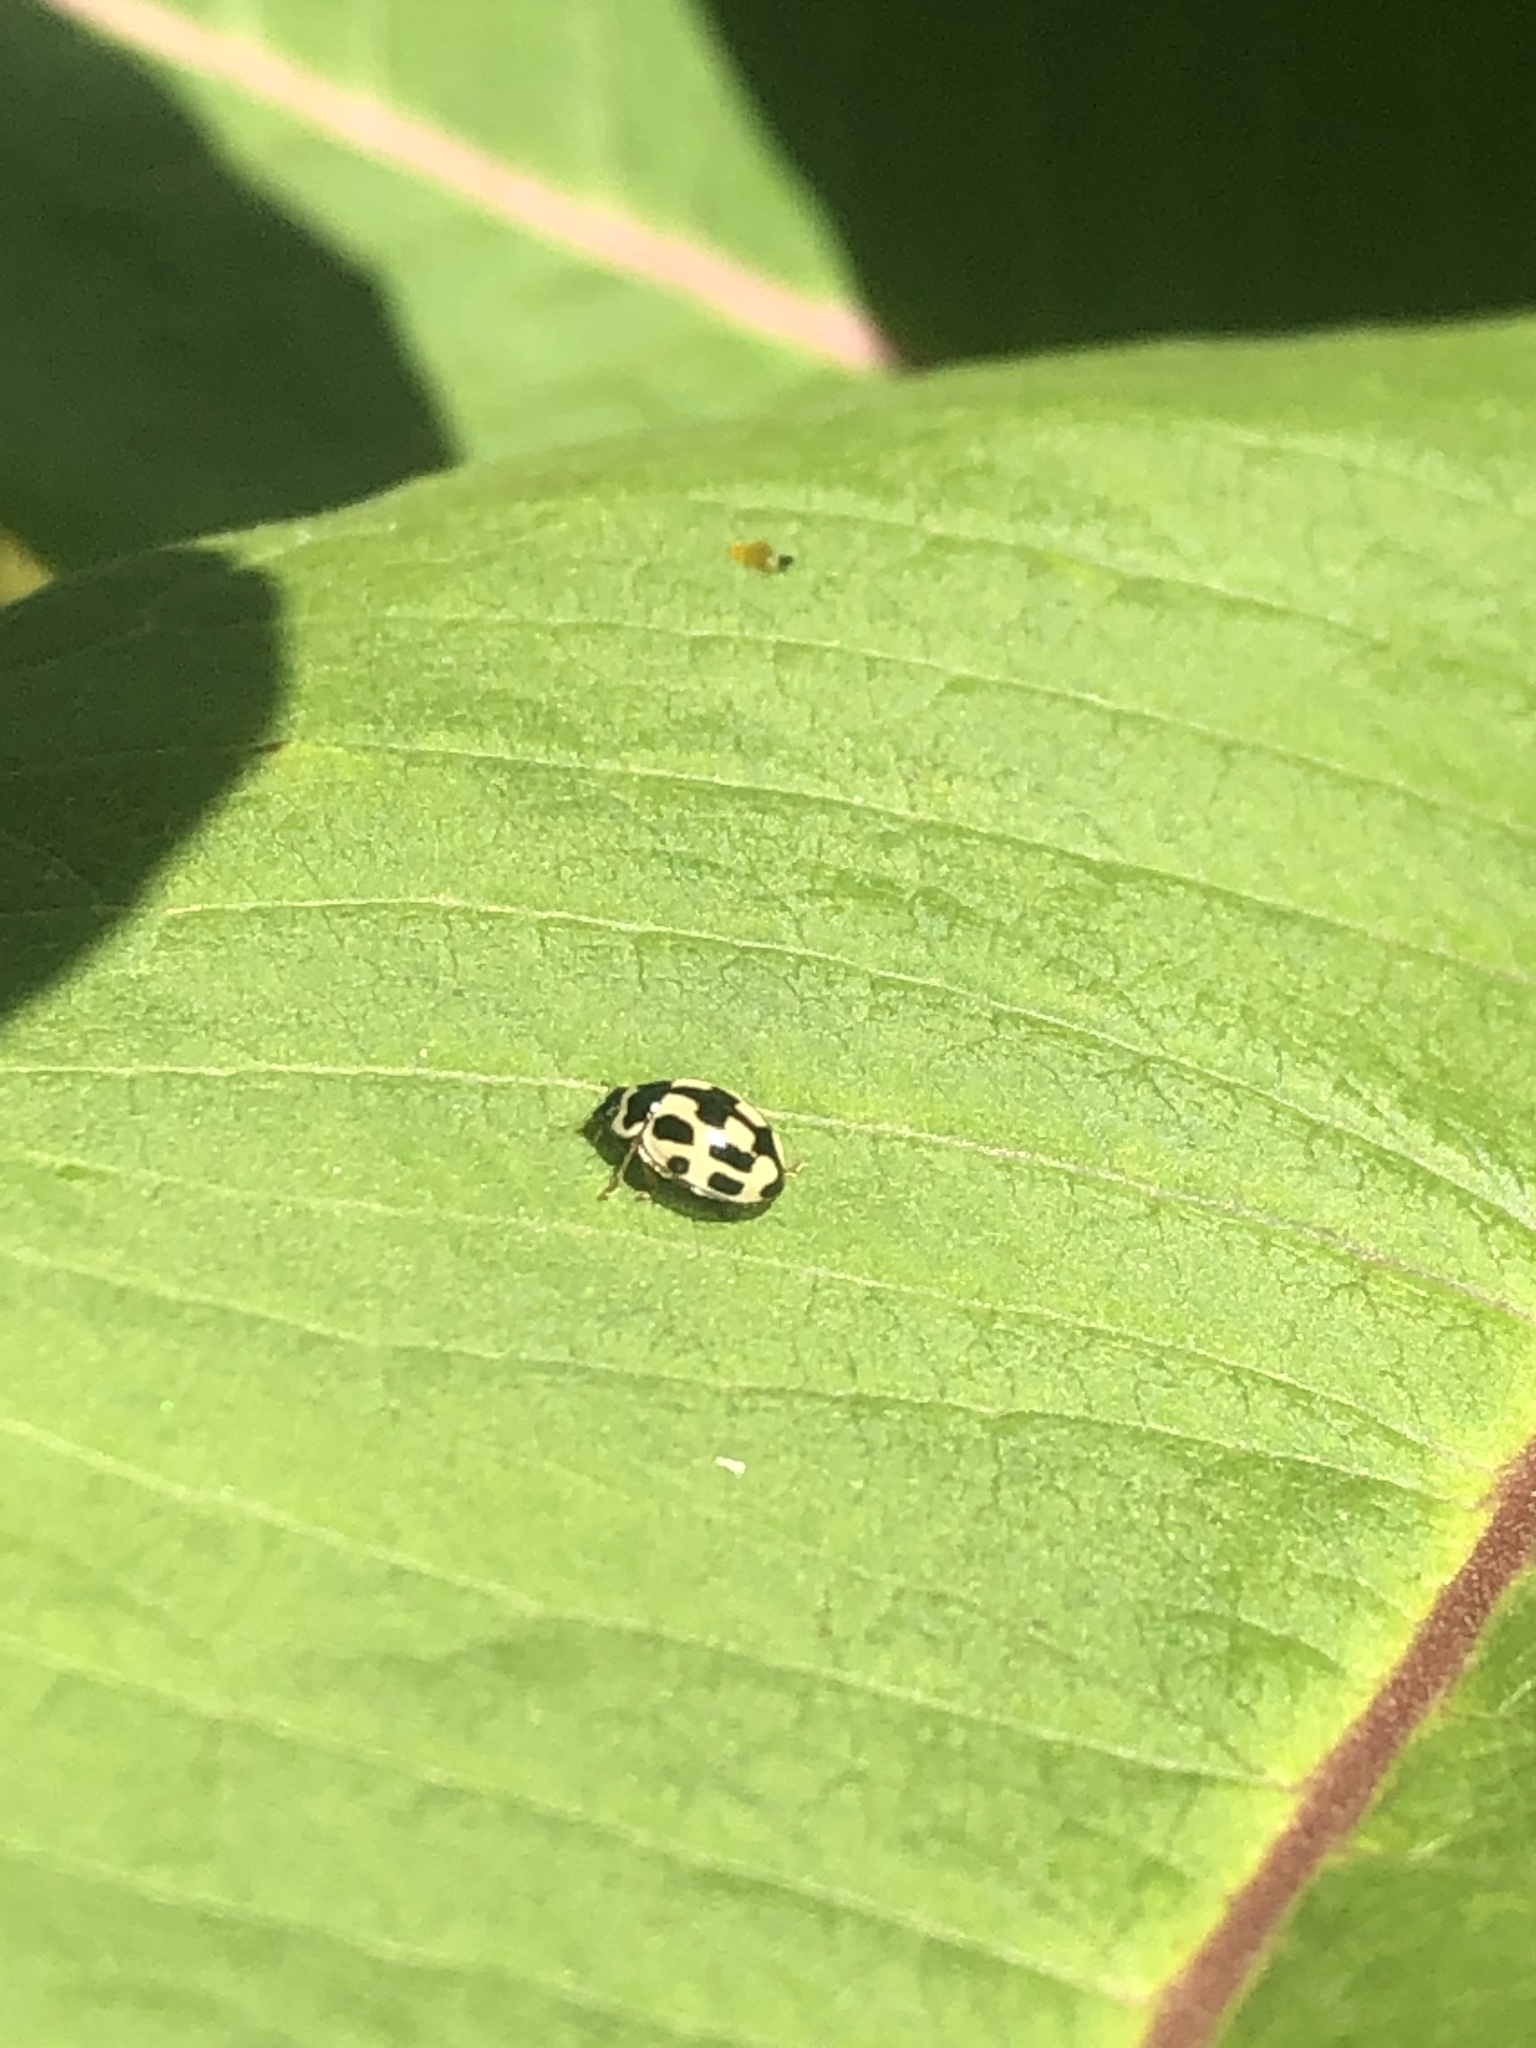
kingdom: Animalia
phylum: Arthropoda
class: Insecta
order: Coleoptera
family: Coccinellidae
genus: Propylaea
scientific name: Propylaea quatuordecimpunctata
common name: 14-spotted ladybird beetle
